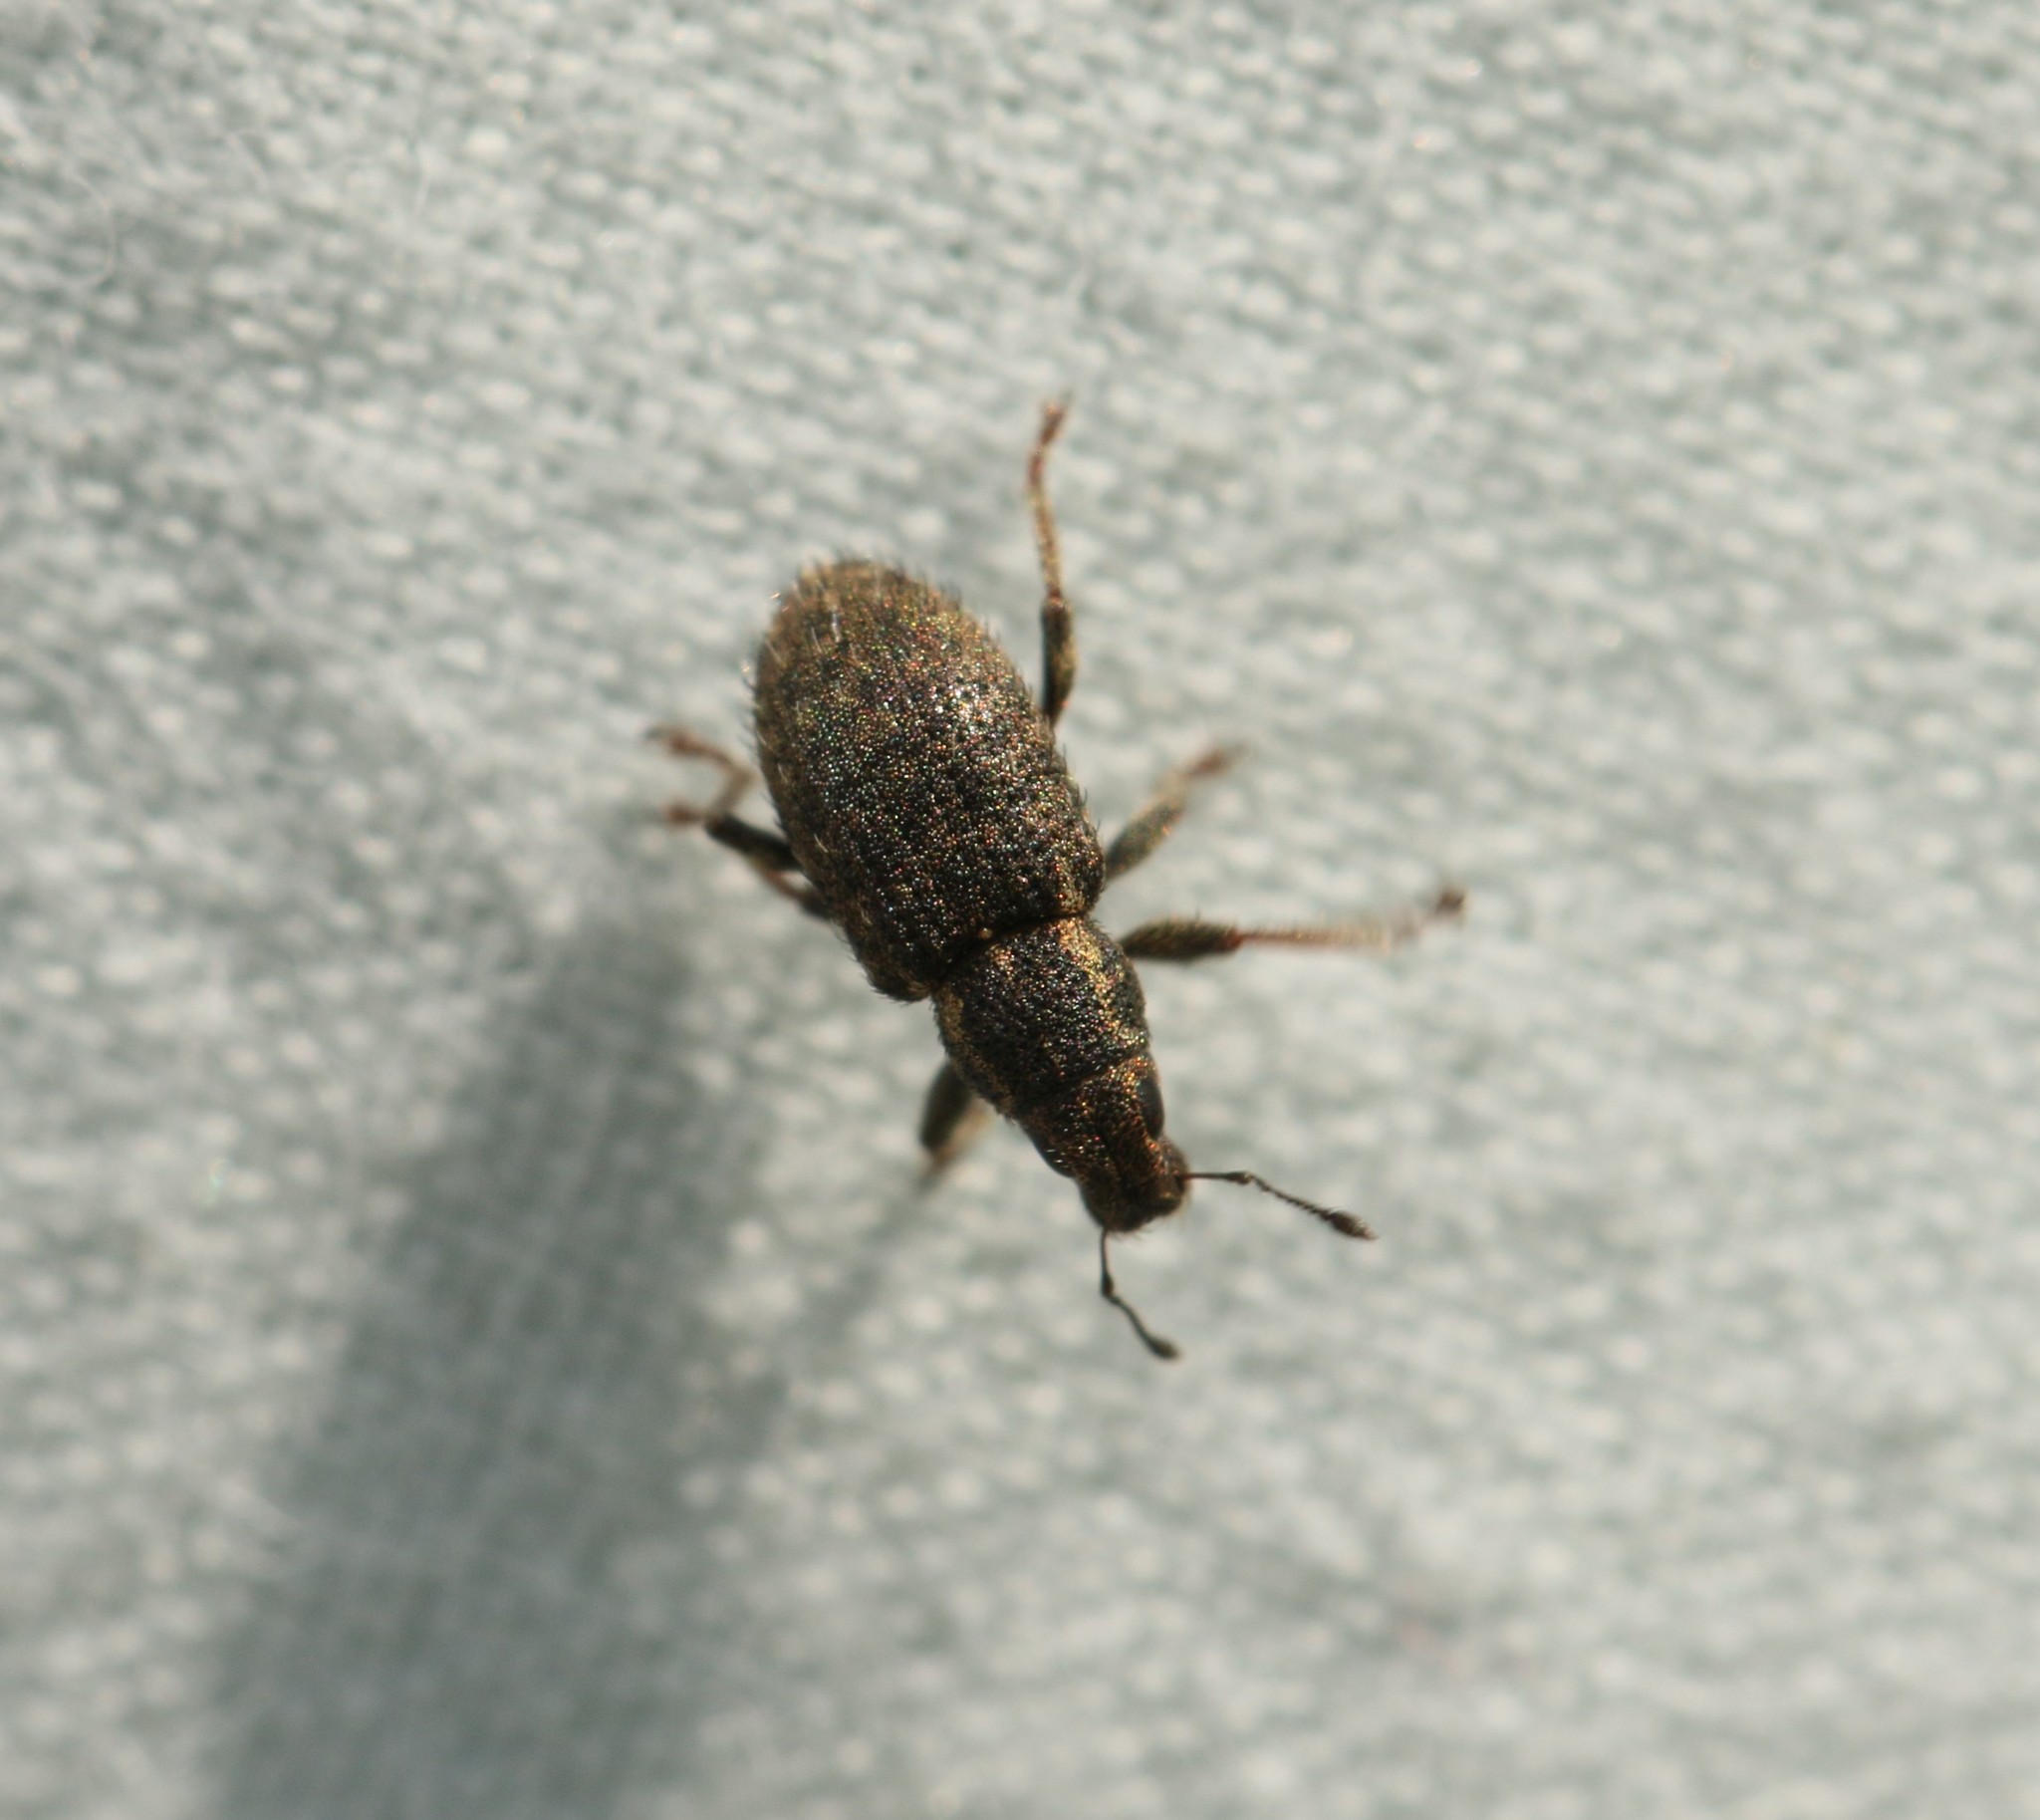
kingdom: Animalia
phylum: Arthropoda
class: Insecta
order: Coleoptera
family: Curculionidae
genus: Sitona
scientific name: Sitona hispidulus
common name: Clover weevil
